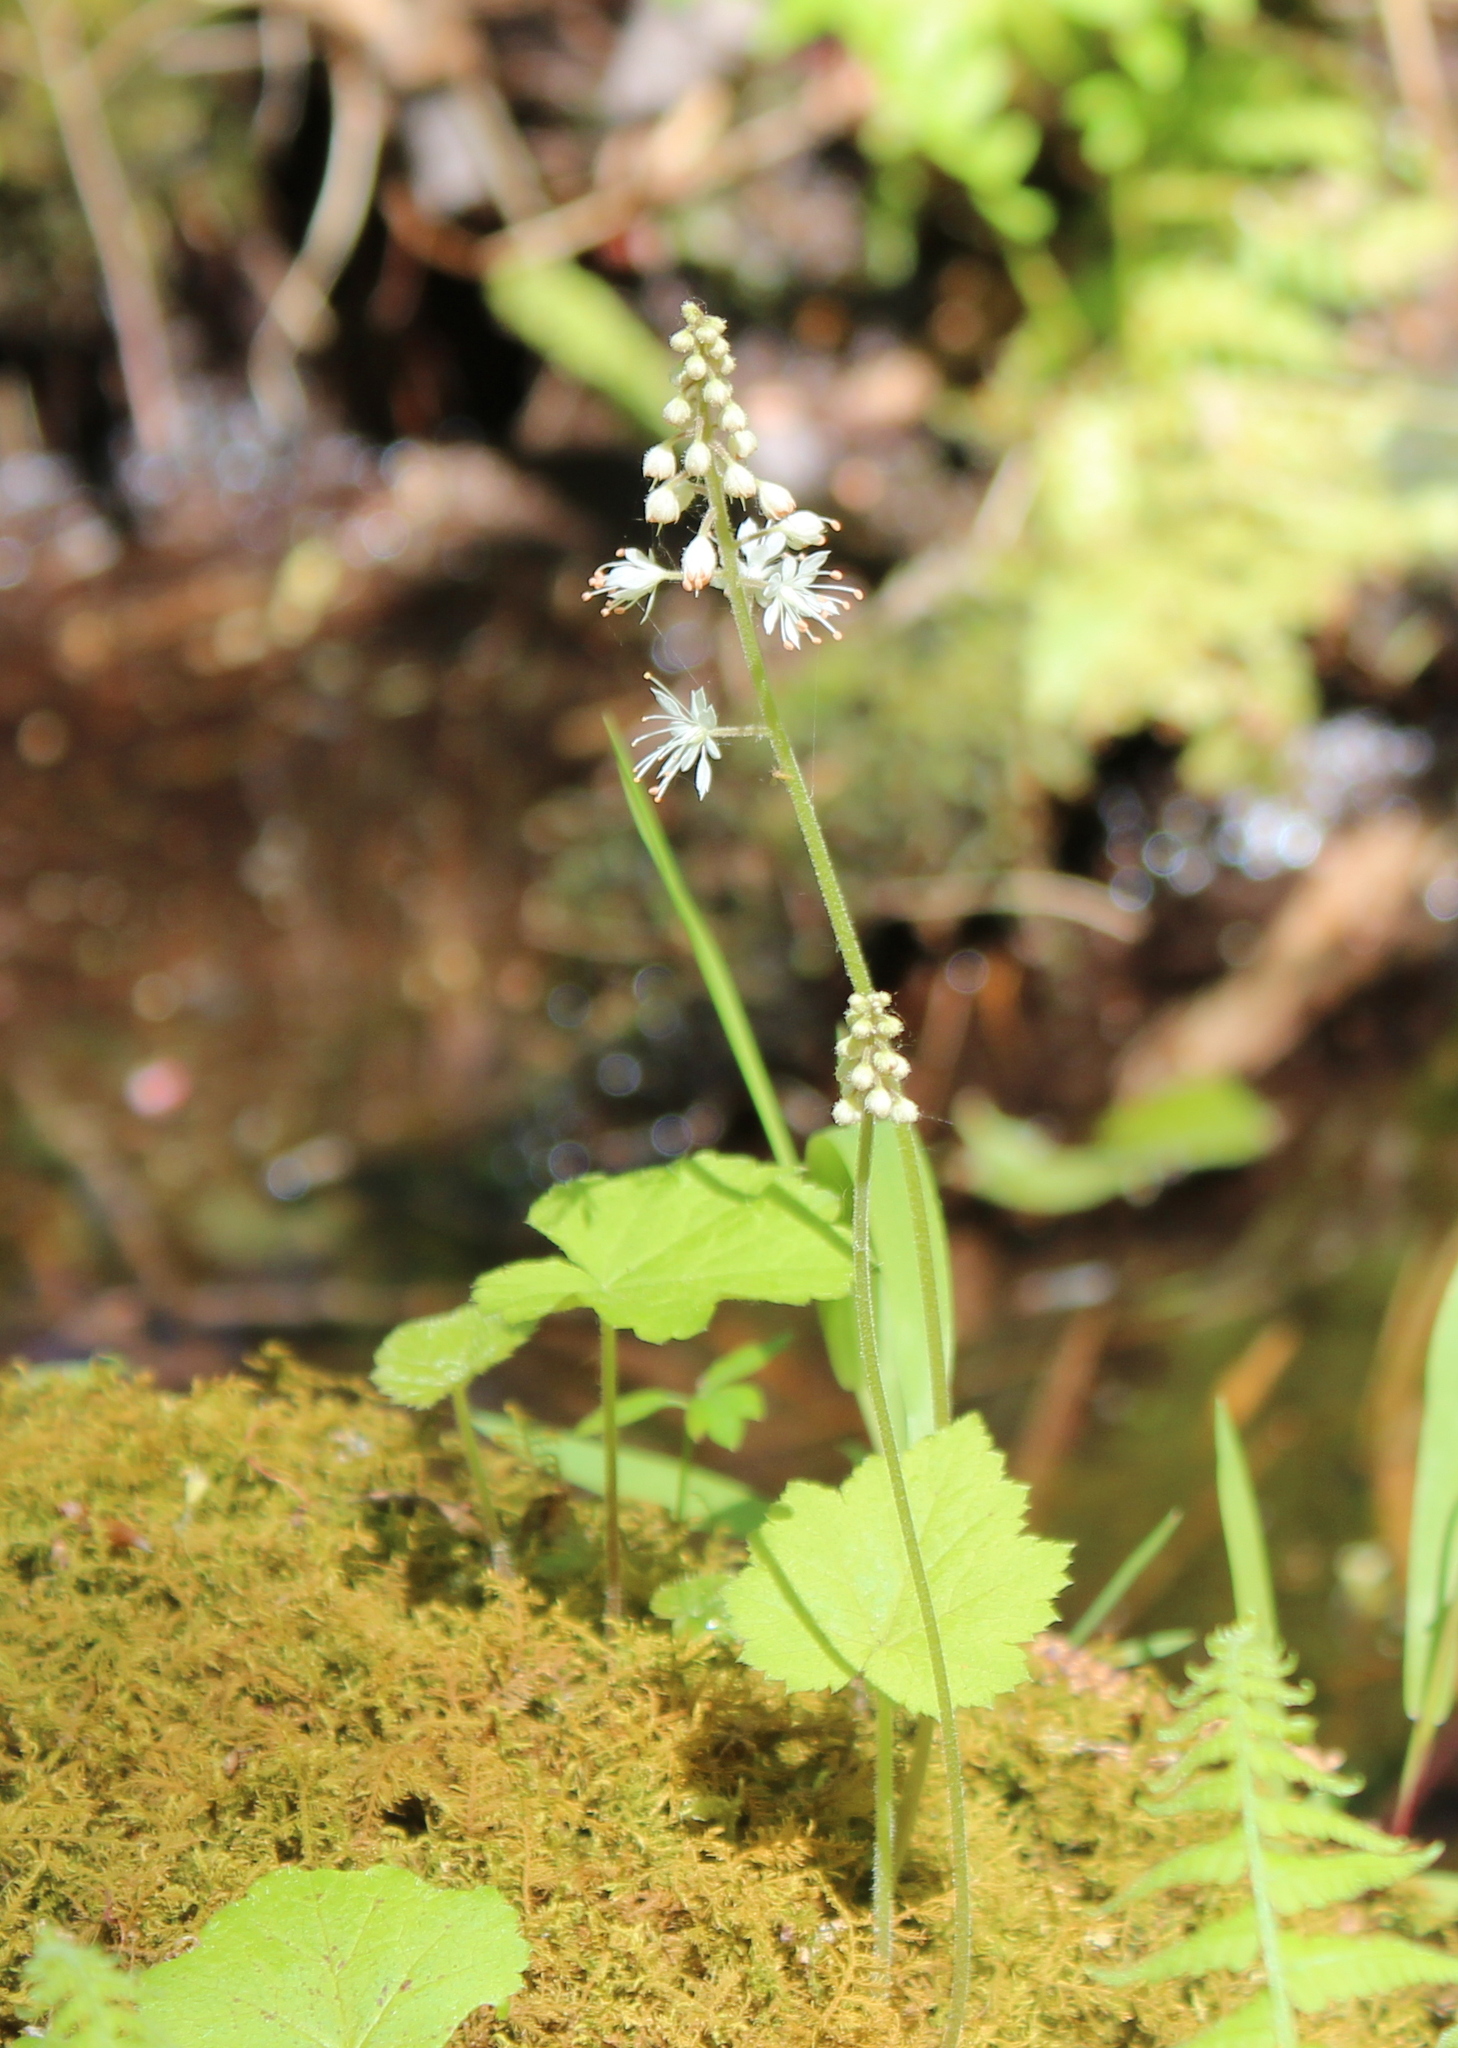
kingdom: Plantae
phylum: Tracheophyta
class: Magnoliopsida
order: Saxifragales
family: Saxifragaceae
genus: Tiarella
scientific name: Tiarella stolonifera
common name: Stoloniferous foamflower
